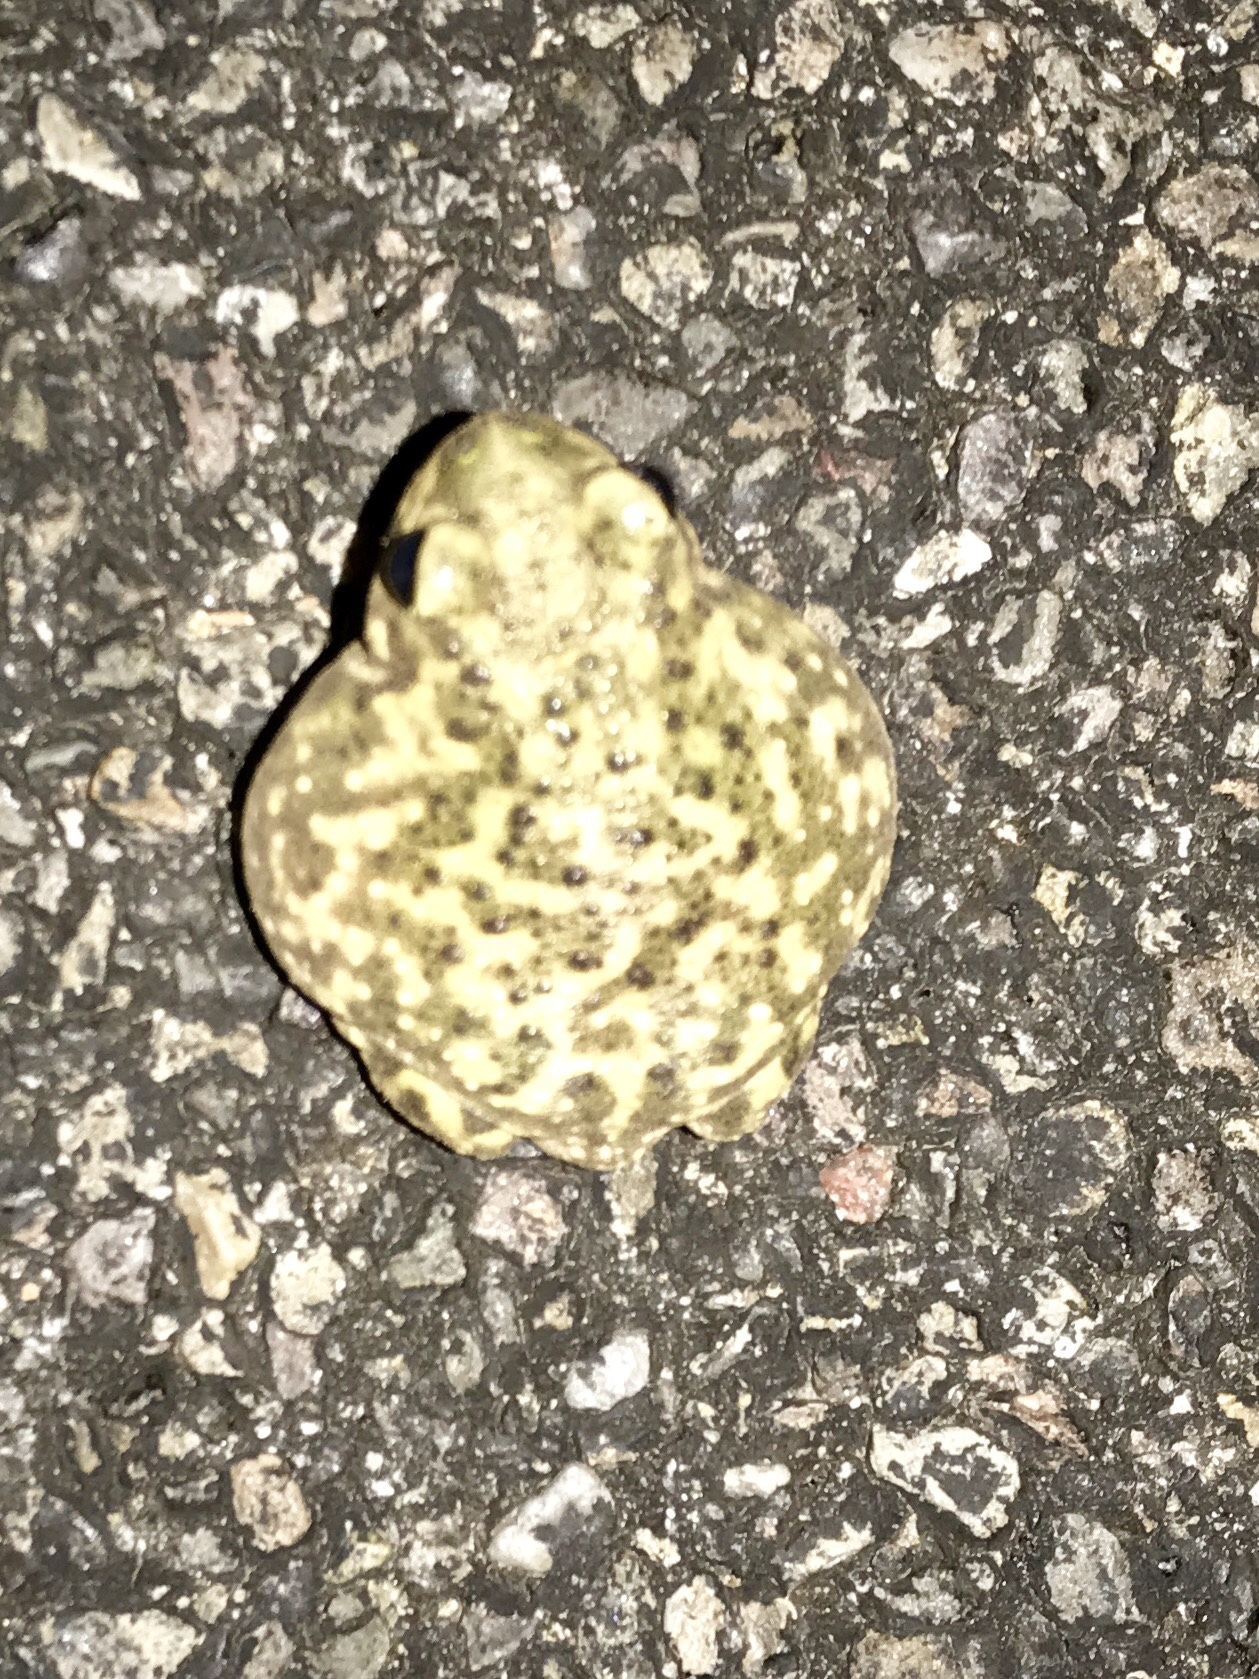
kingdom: Animalia
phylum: Chordata
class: Amphibia
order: Anura
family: Scaphiopodidae
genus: Scaphiopus
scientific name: Scaphiopus couchii
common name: Couch's spadefoot toad
